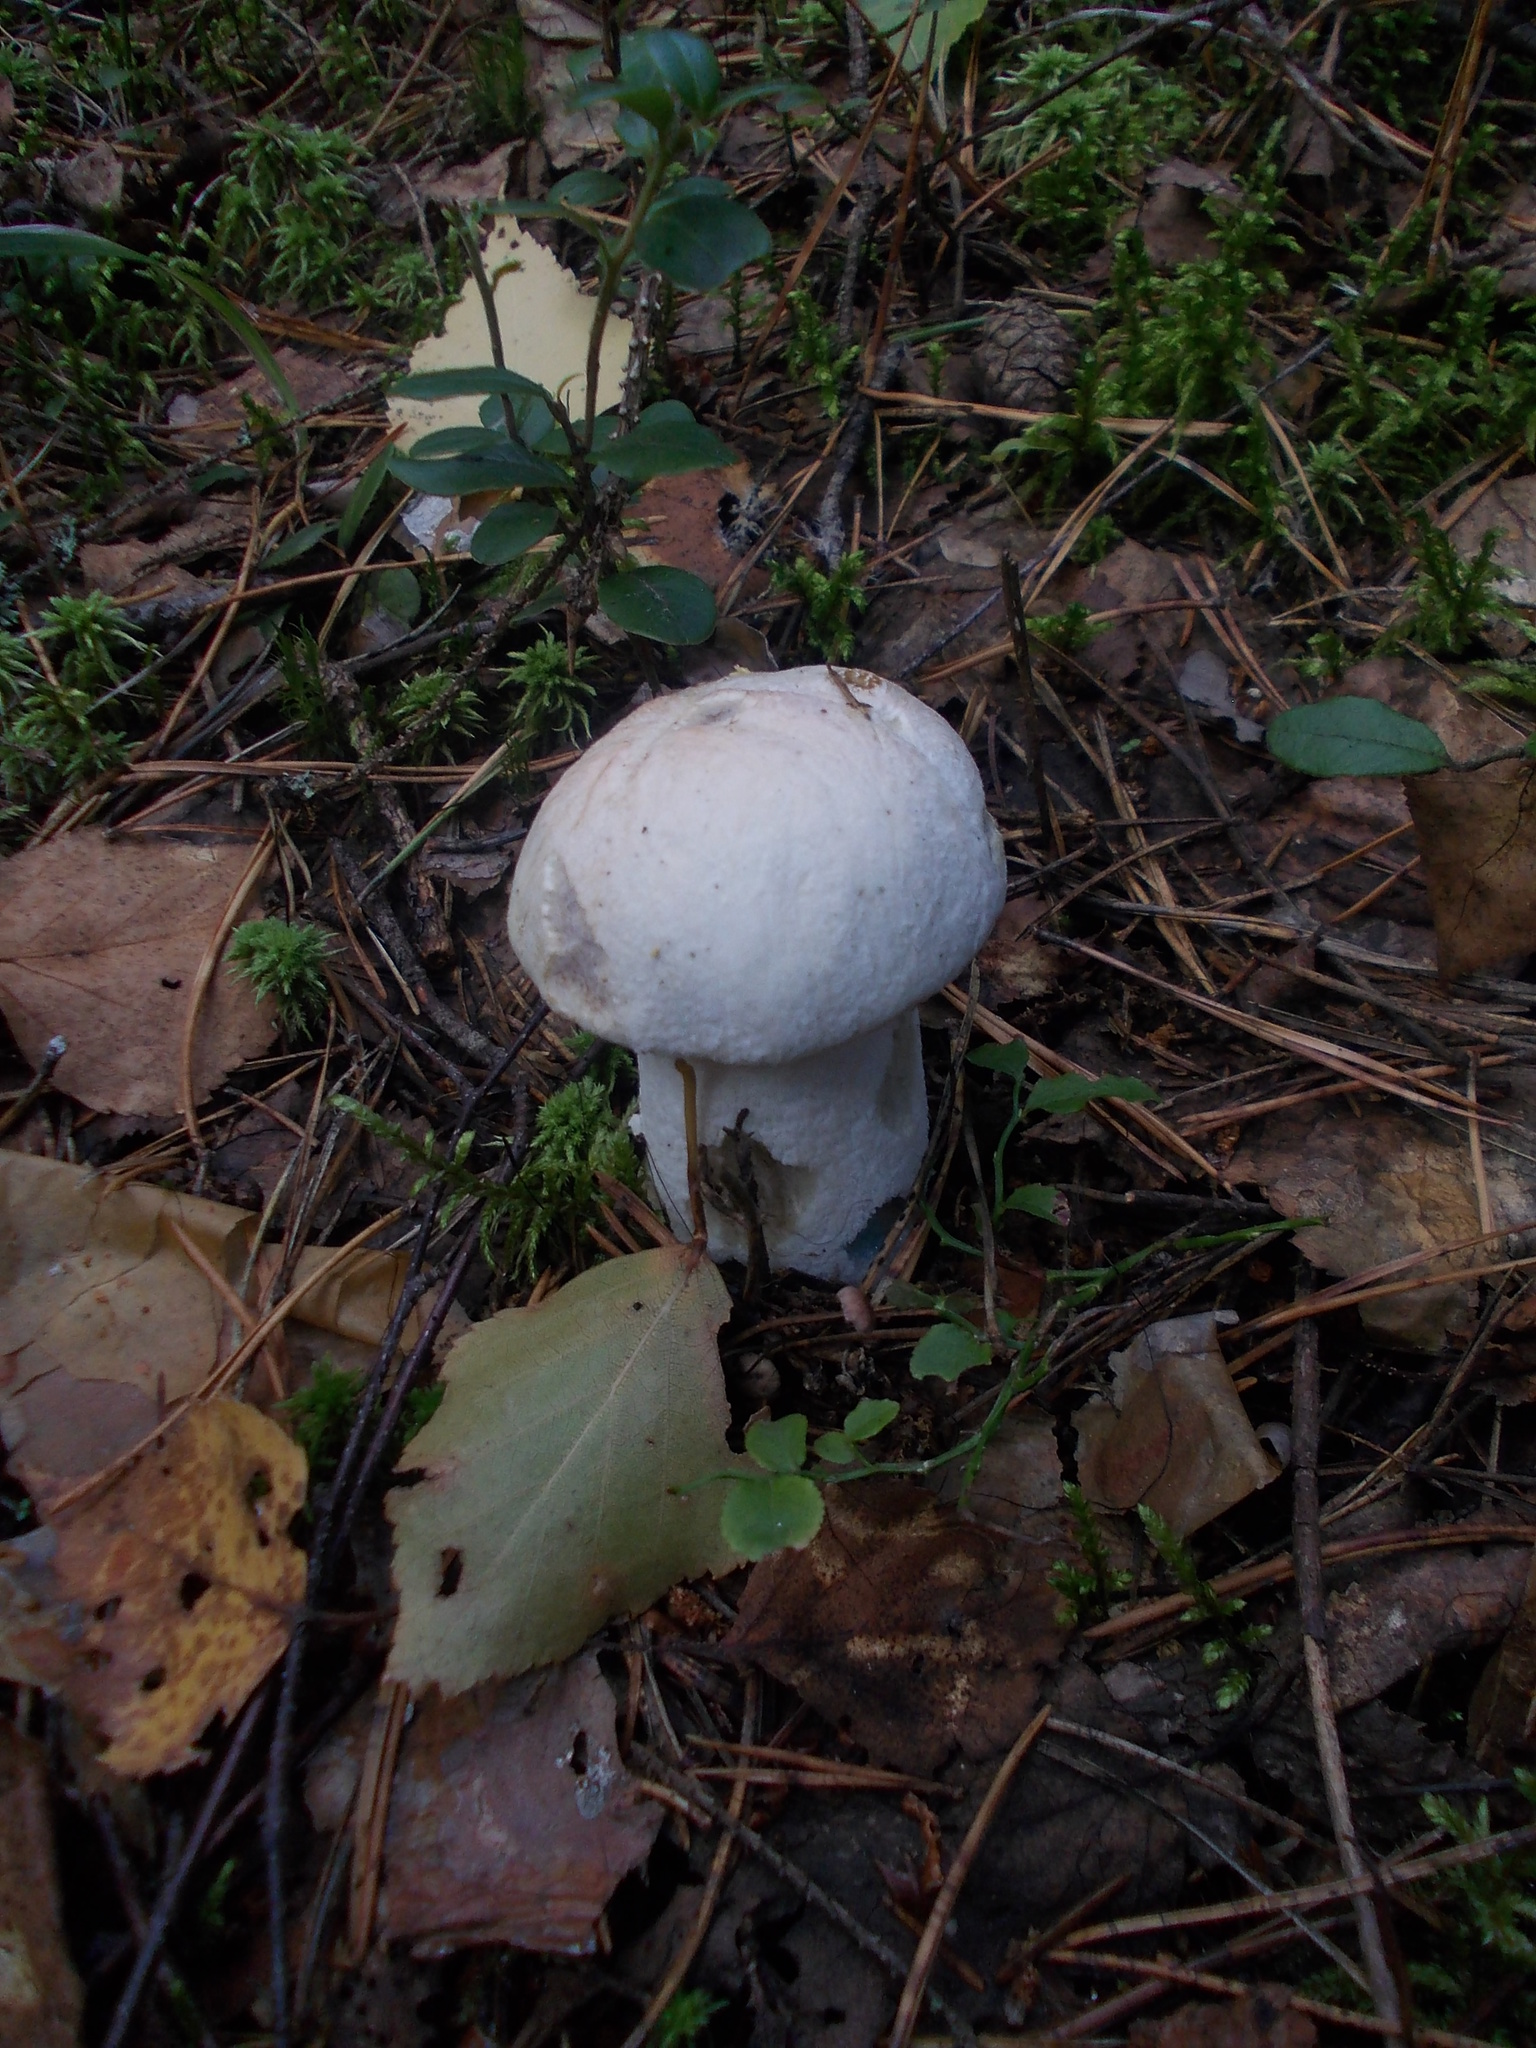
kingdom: Fungi
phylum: Basidiomycota
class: Agaricomycetes
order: Boletales
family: Boletaceae
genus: Leccinum
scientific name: Leccinum versipelle
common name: Orange birch bolete
